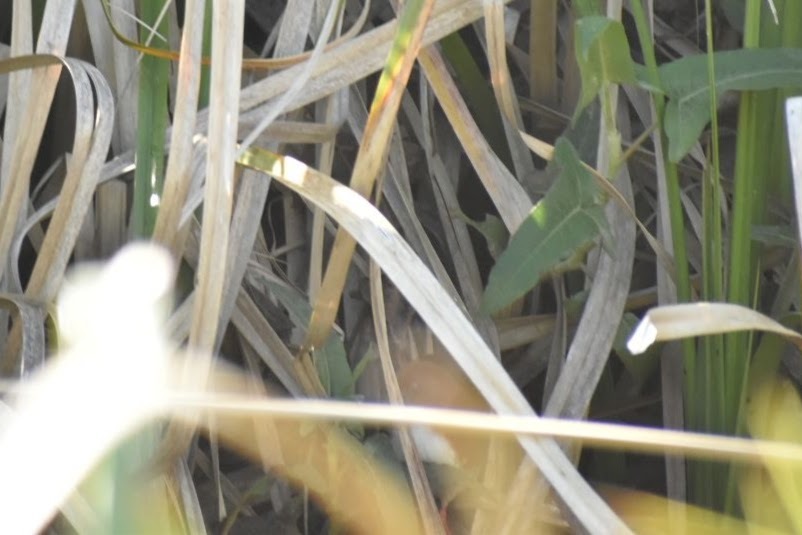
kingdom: Animalia
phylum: Chordata
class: Aves
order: Gruiformes
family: Rallidae
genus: Laterallus
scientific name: Laterallus leucopyrrhus
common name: Red-and-white crake
